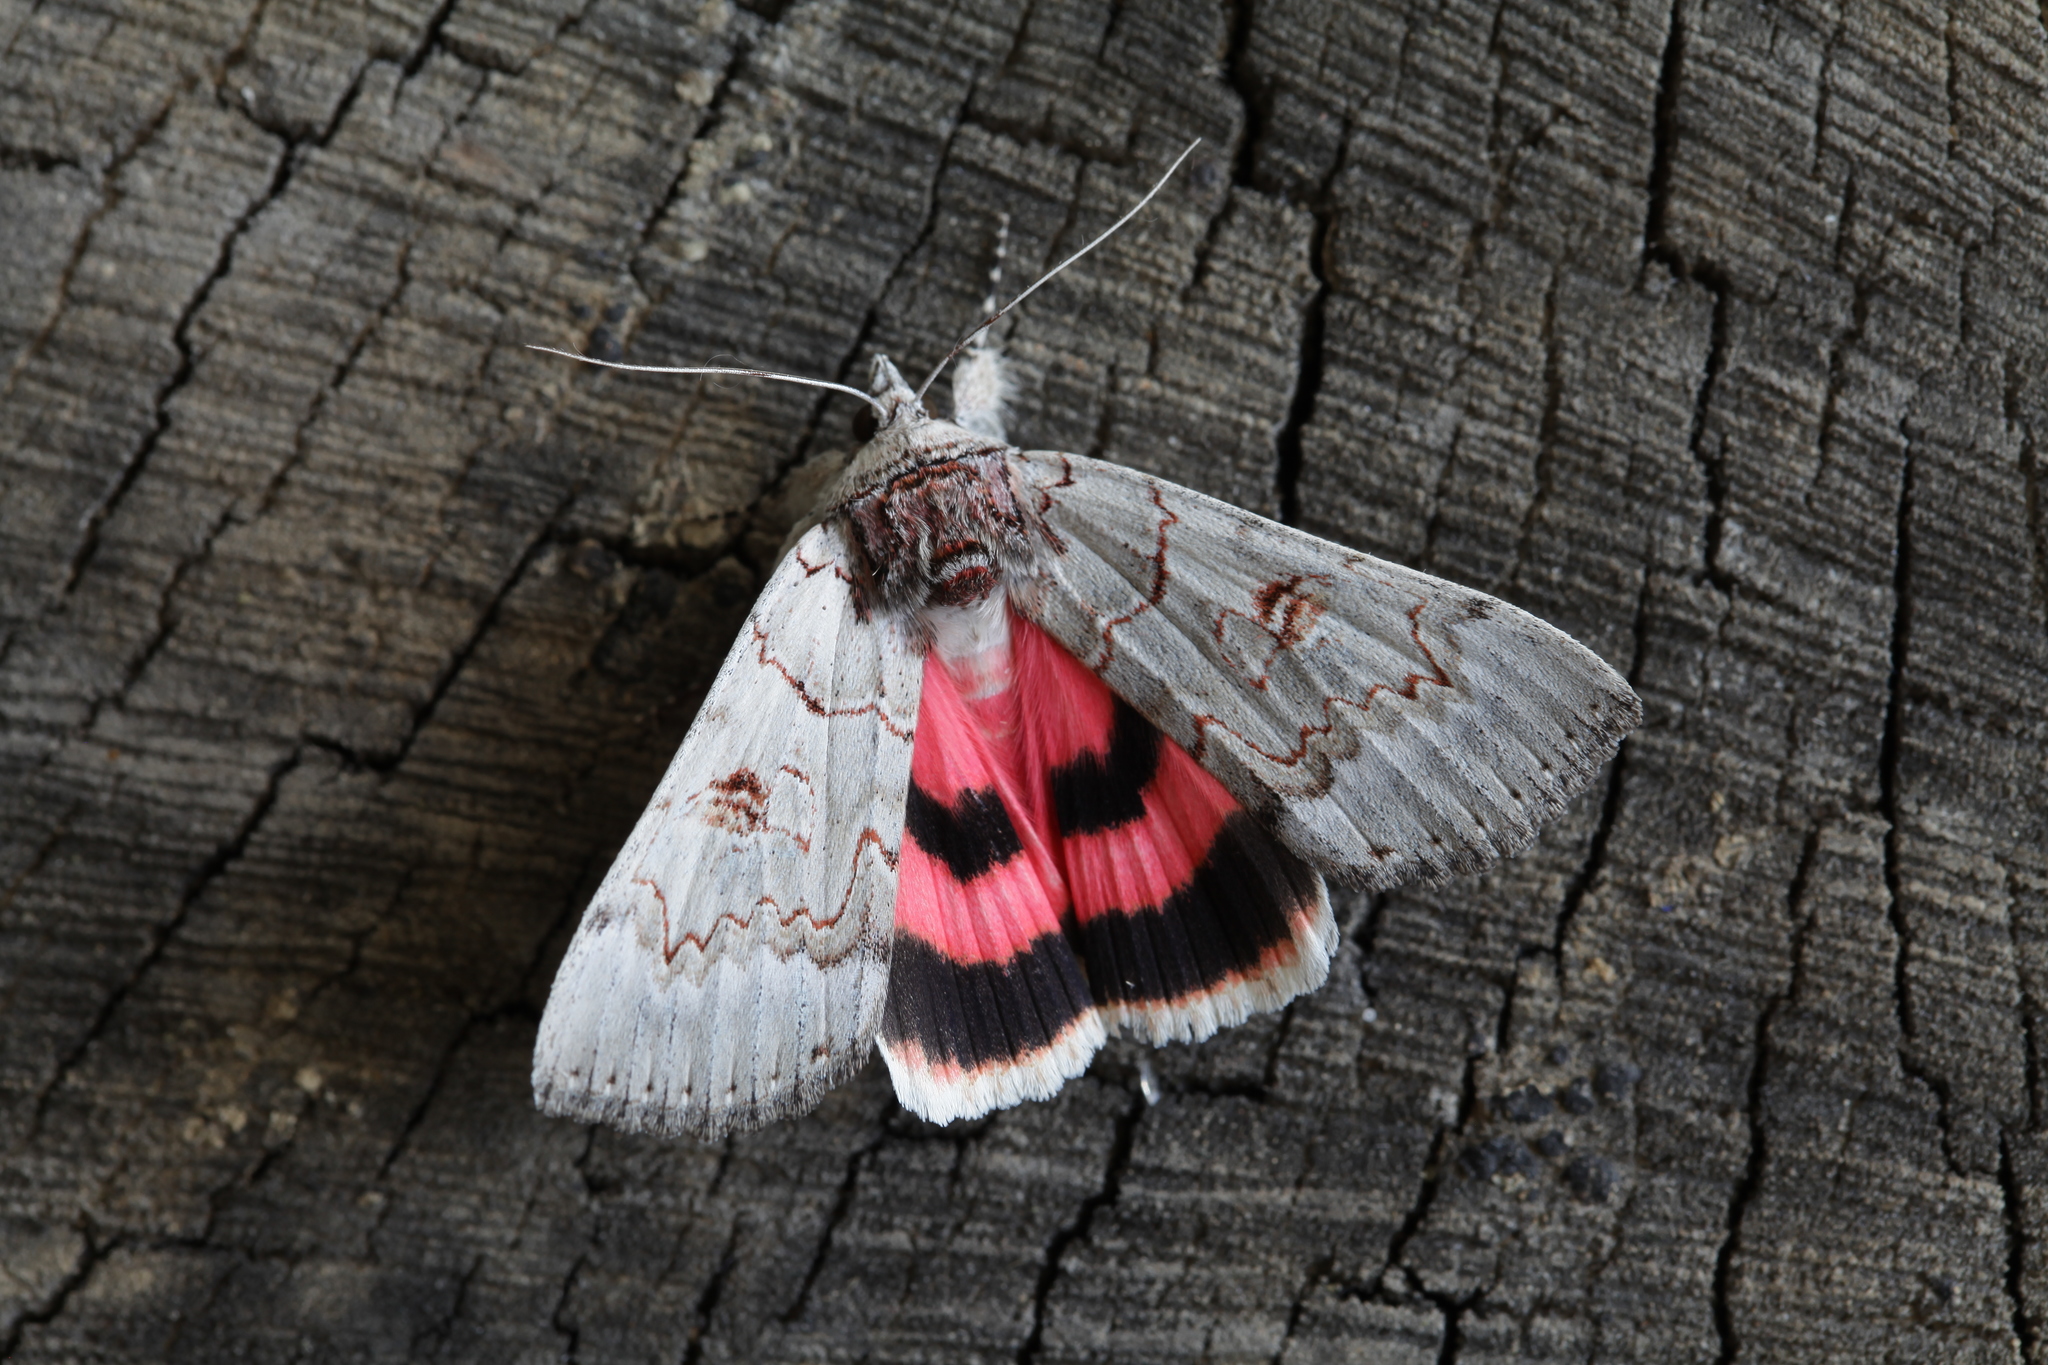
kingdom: Animalia
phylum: Arthropoda
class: Insecta
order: Lepidoptera
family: Erebidae
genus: Catocala
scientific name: Catocala pacta
